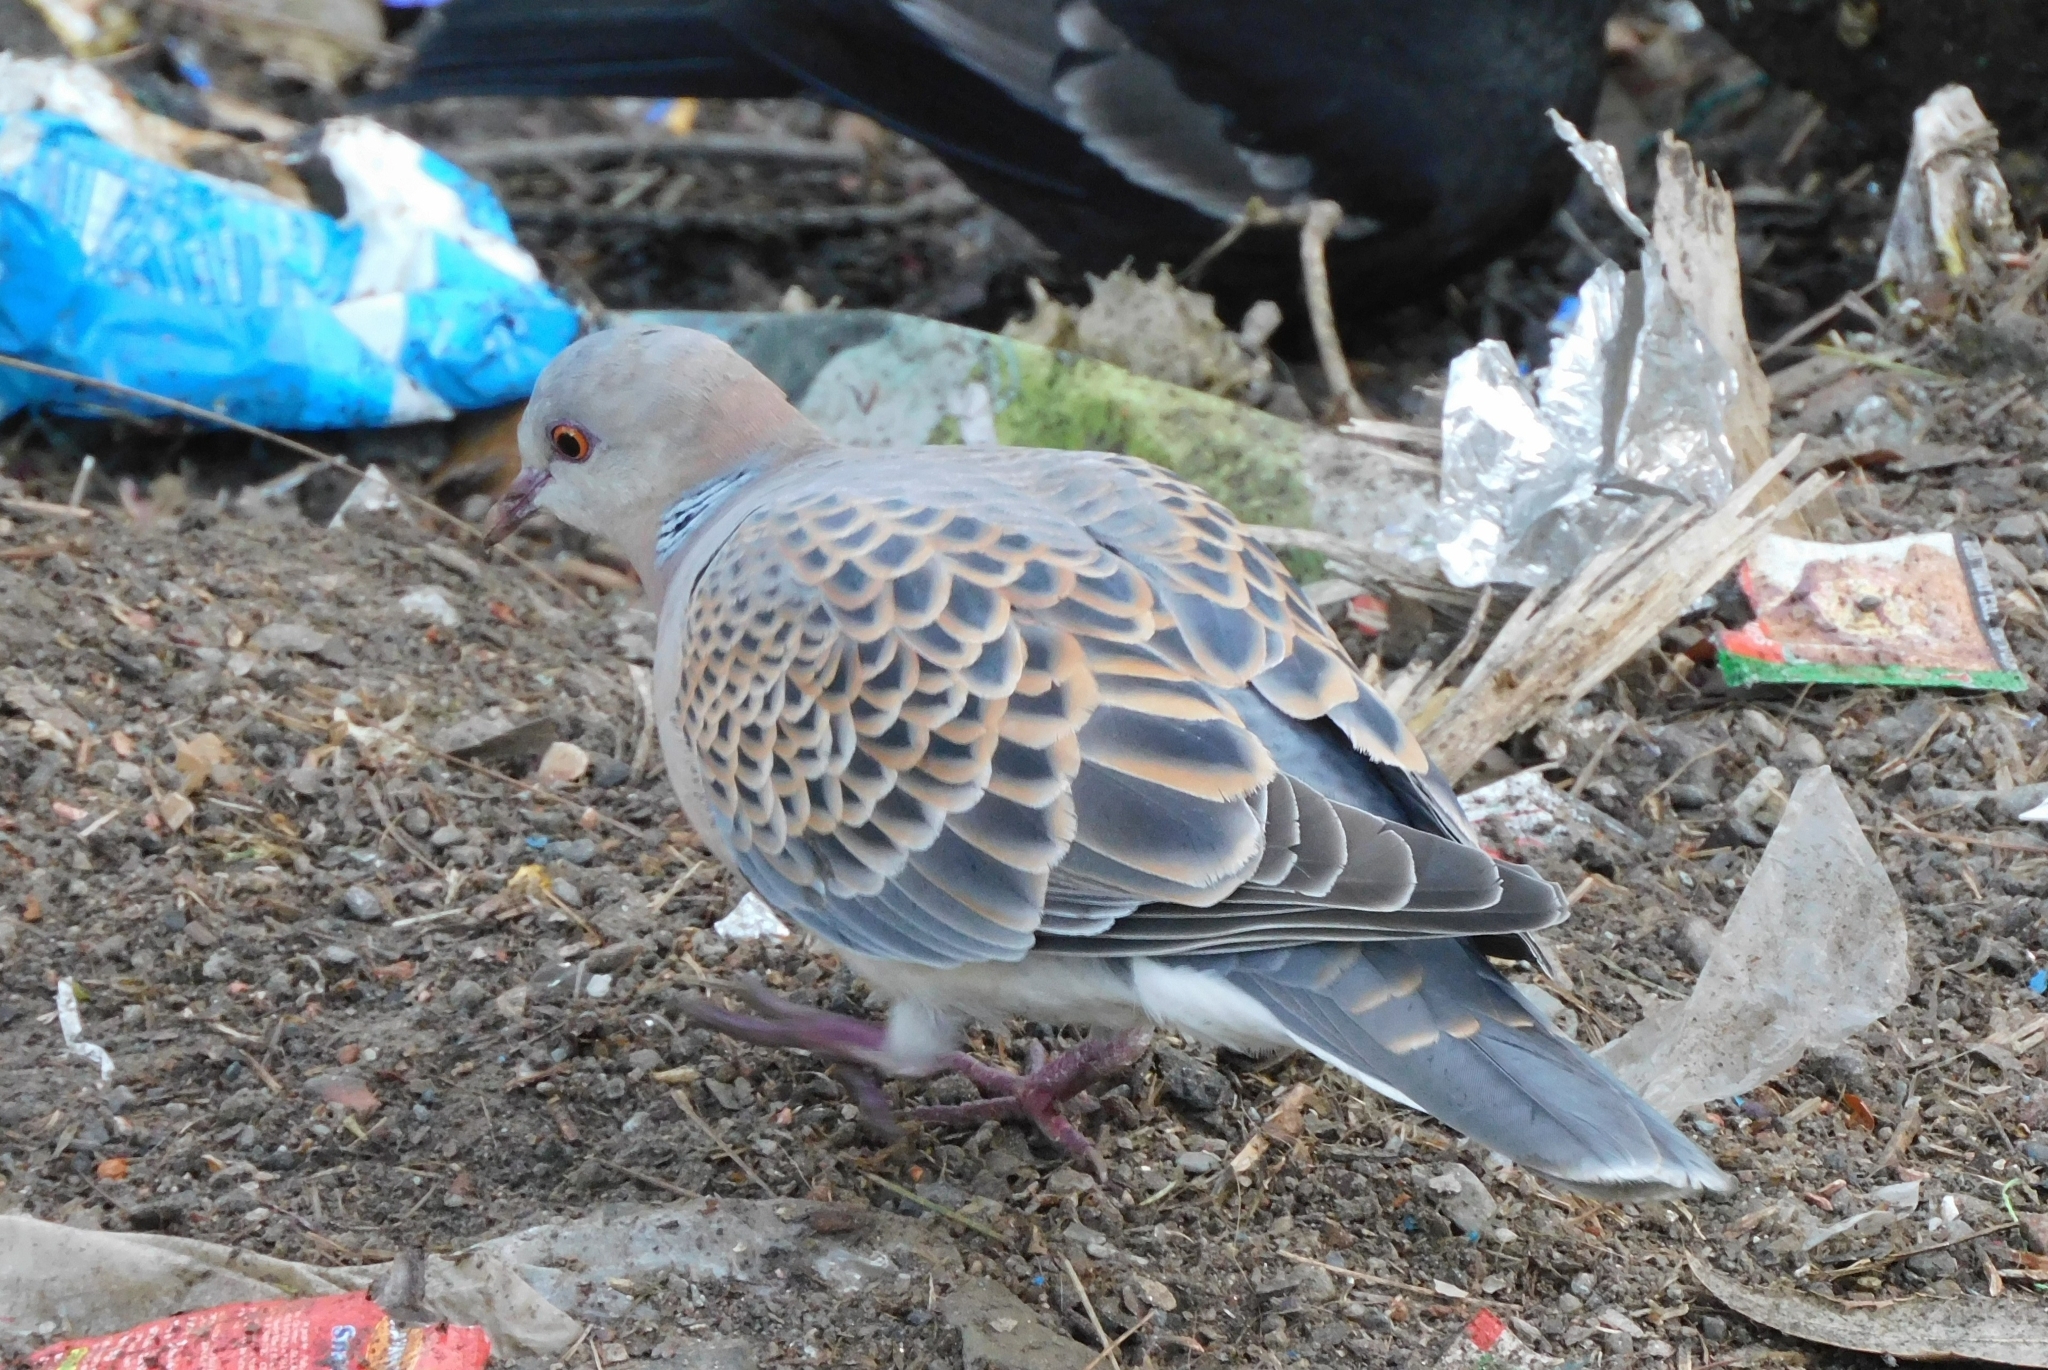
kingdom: Animalia
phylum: Chordata
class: Aves
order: Columbiformes
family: Columbidae
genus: Streptopelia
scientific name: Streptopelia orientalis
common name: Oriental turtle dove
